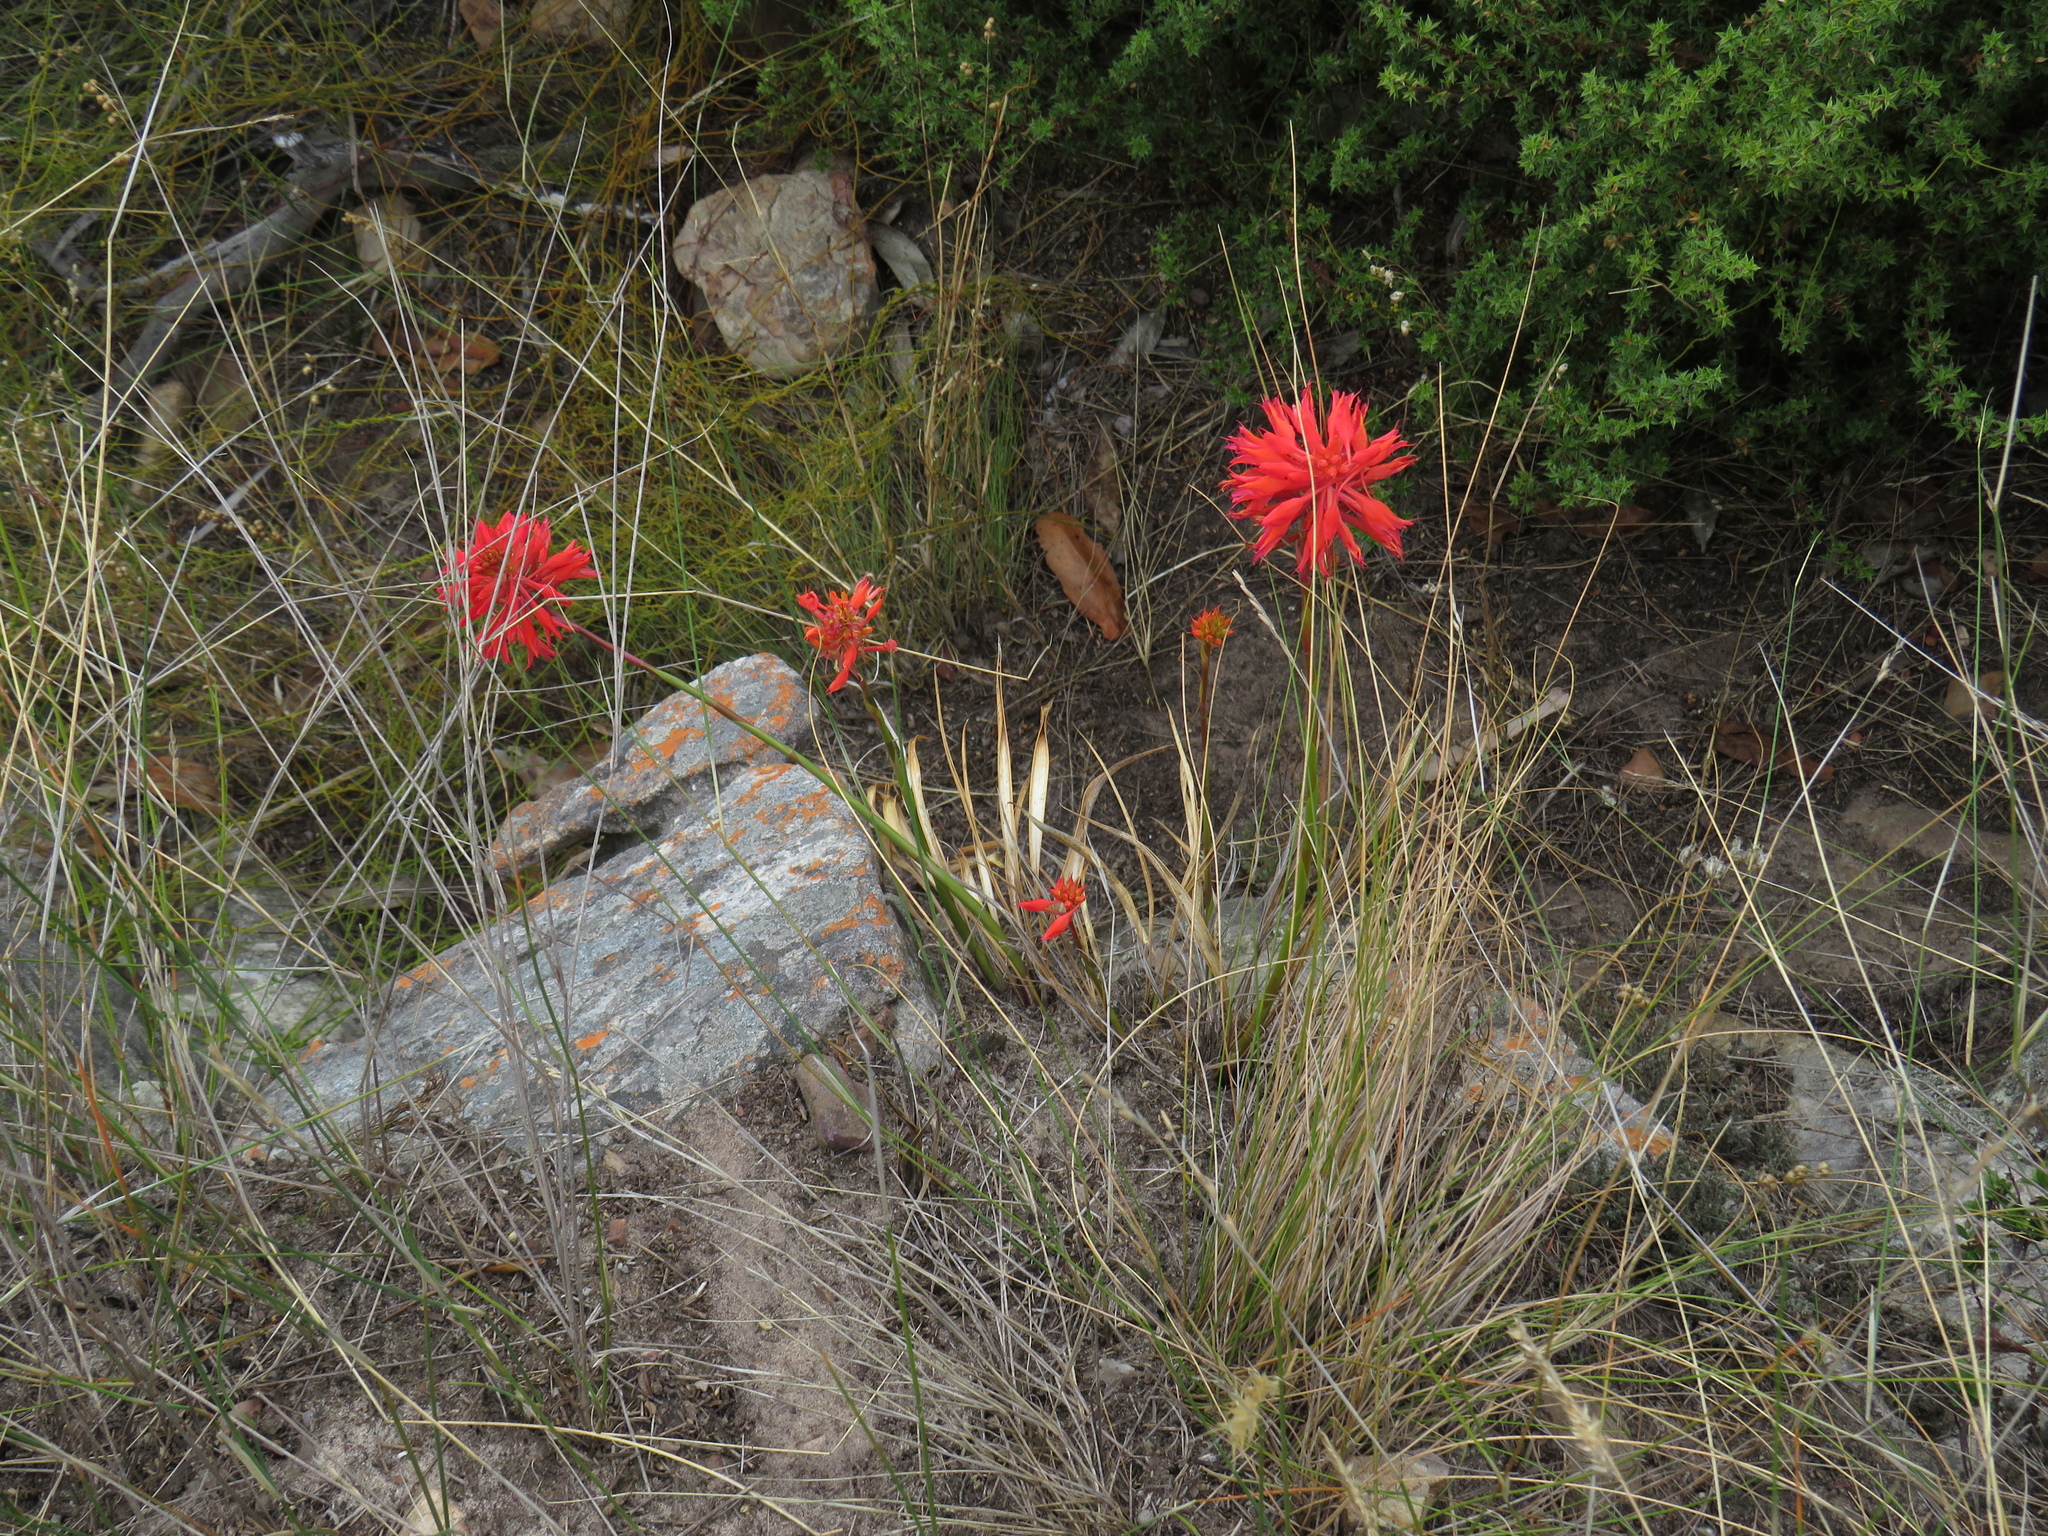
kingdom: Plantae
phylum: Tracheophyta
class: Liliopsida
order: Asparagales
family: Orchidaceae
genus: Disa
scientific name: Disa ferruginea
